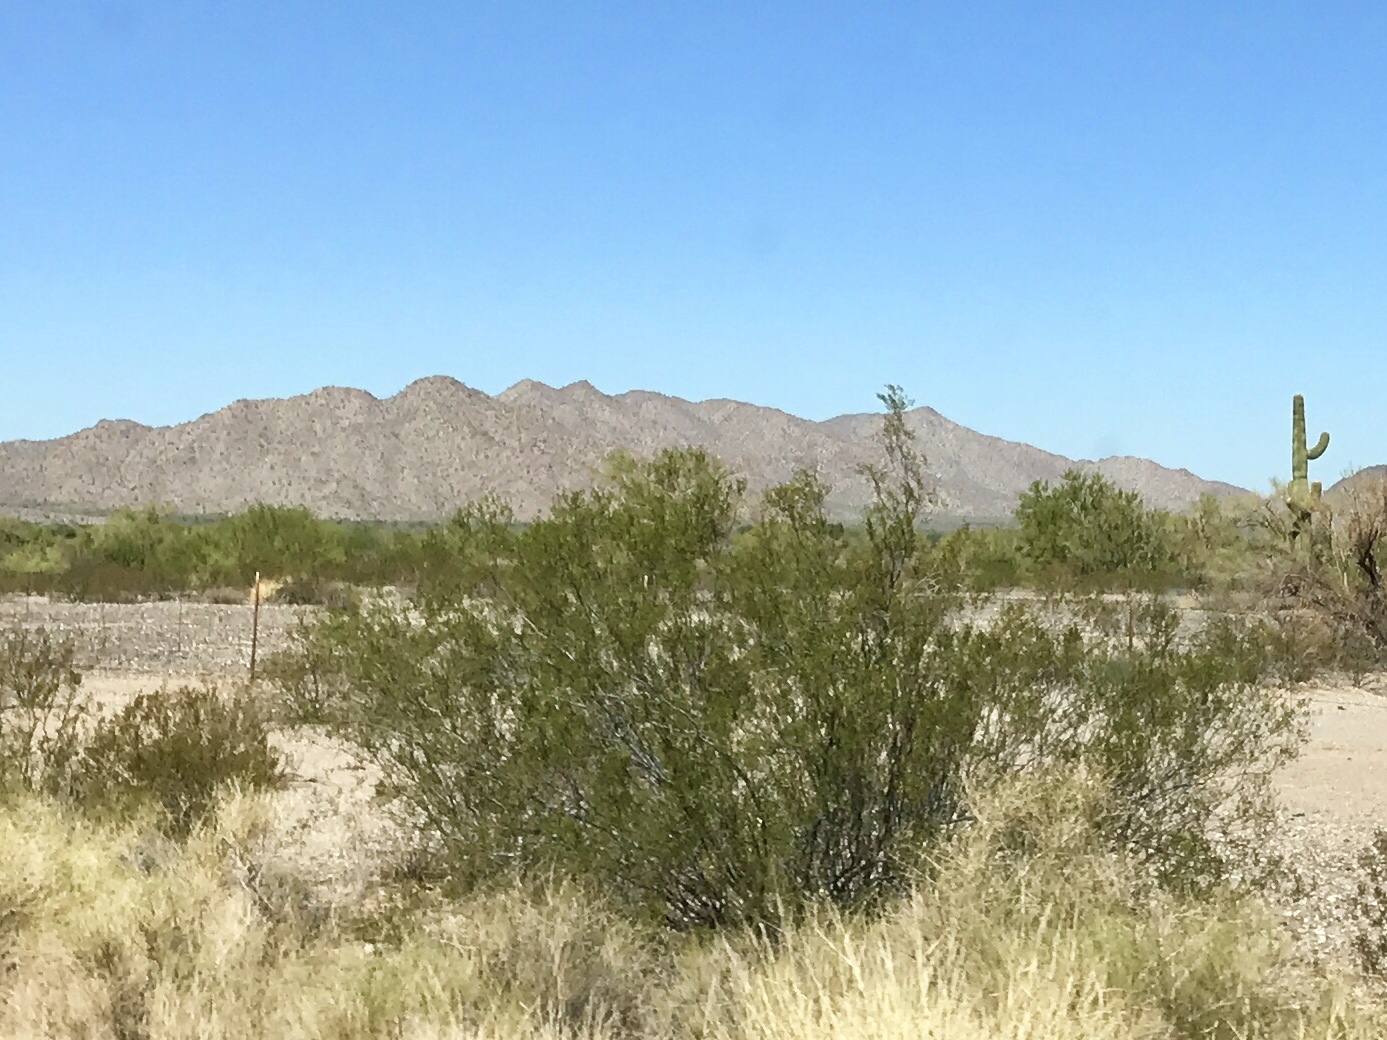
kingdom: Plantae
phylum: Tracheophyta
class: Magnoliopsida
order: Zygophyllales
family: Zygophyllaceae
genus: Larrea
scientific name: Larrea tridentata
